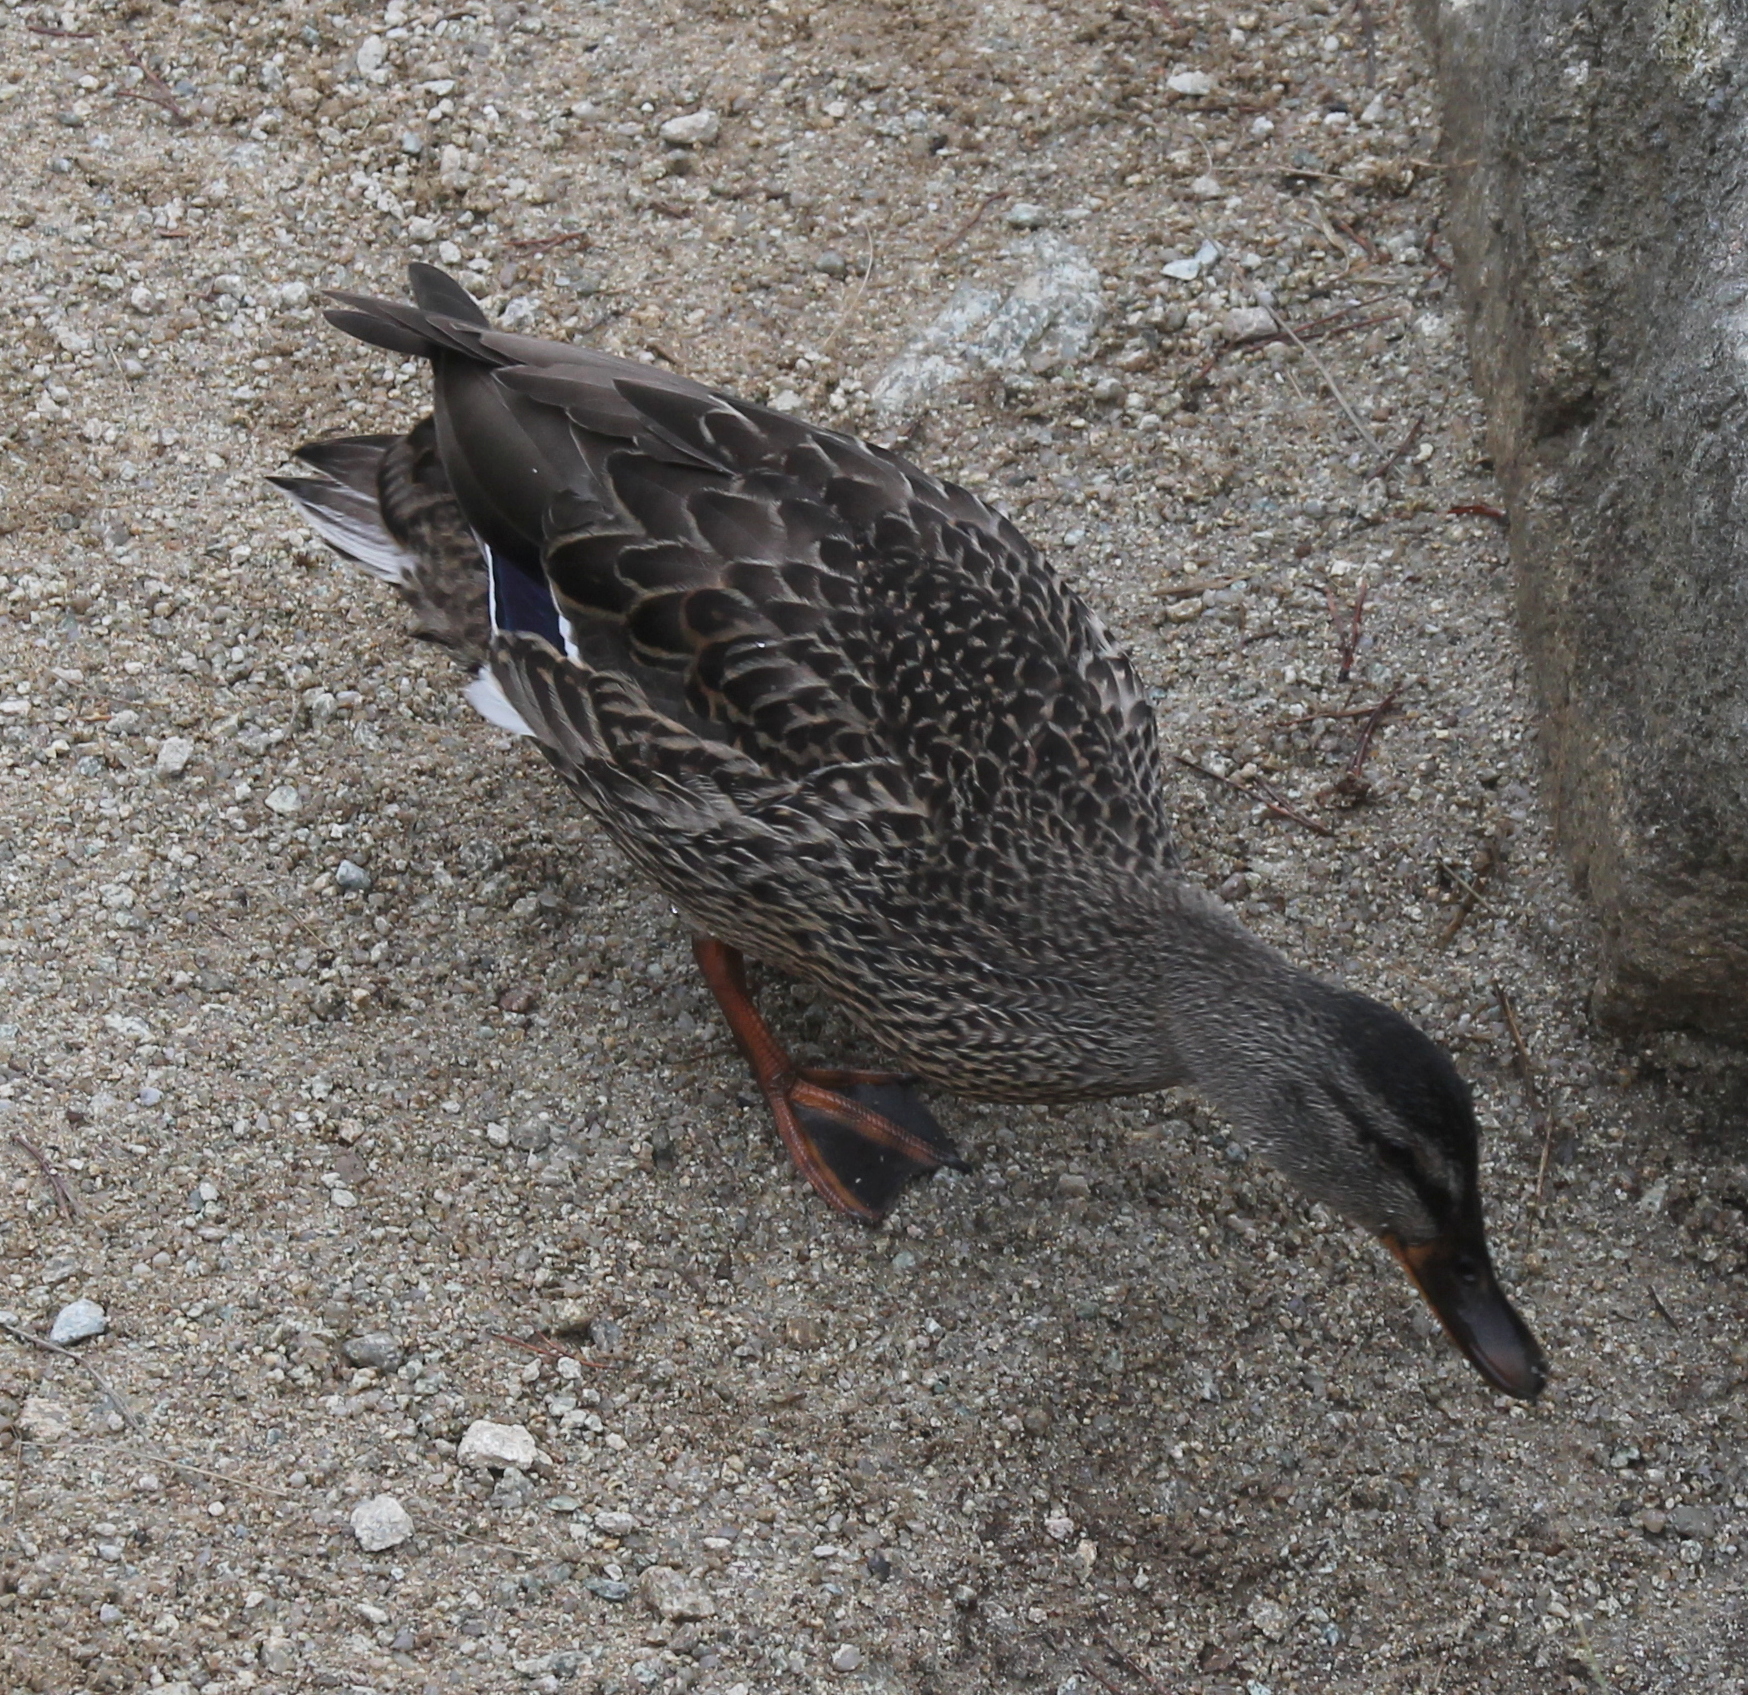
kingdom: Animalia
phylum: Chordata
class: Aves
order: Anseriformes
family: Anatidae
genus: Anas
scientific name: Anas platyrhynchos
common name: Mallard
